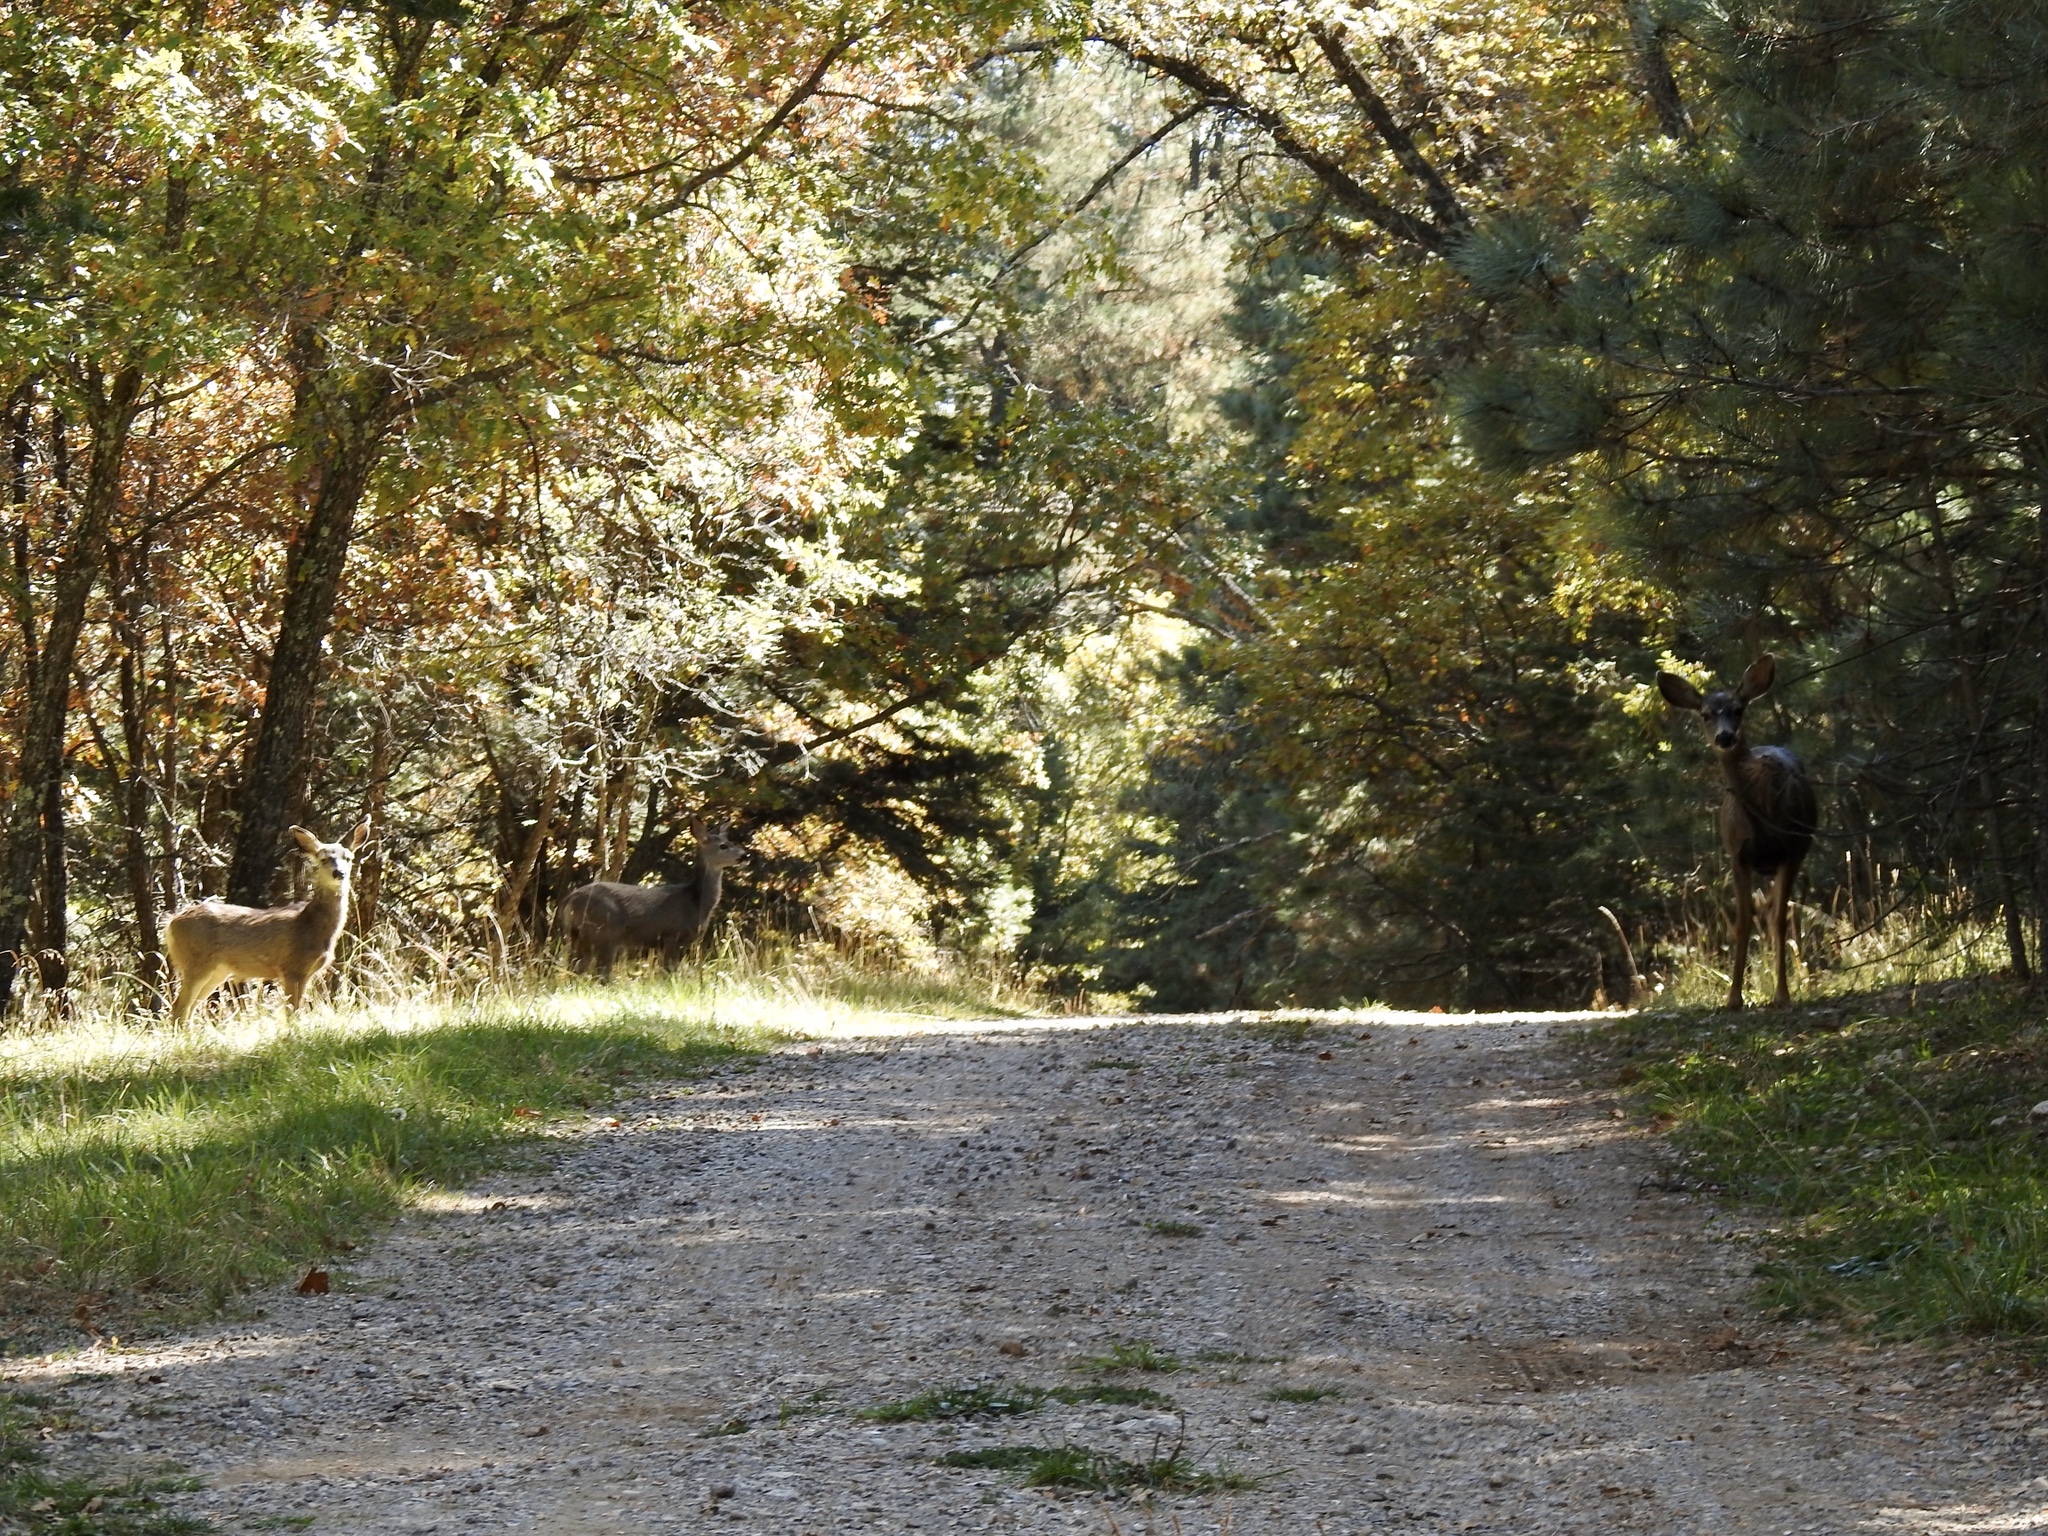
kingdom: Animalia
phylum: Chordata
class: Mammalia
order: Artiodactyla
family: Cervidae
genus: Odocoileus
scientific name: Odocoileus
